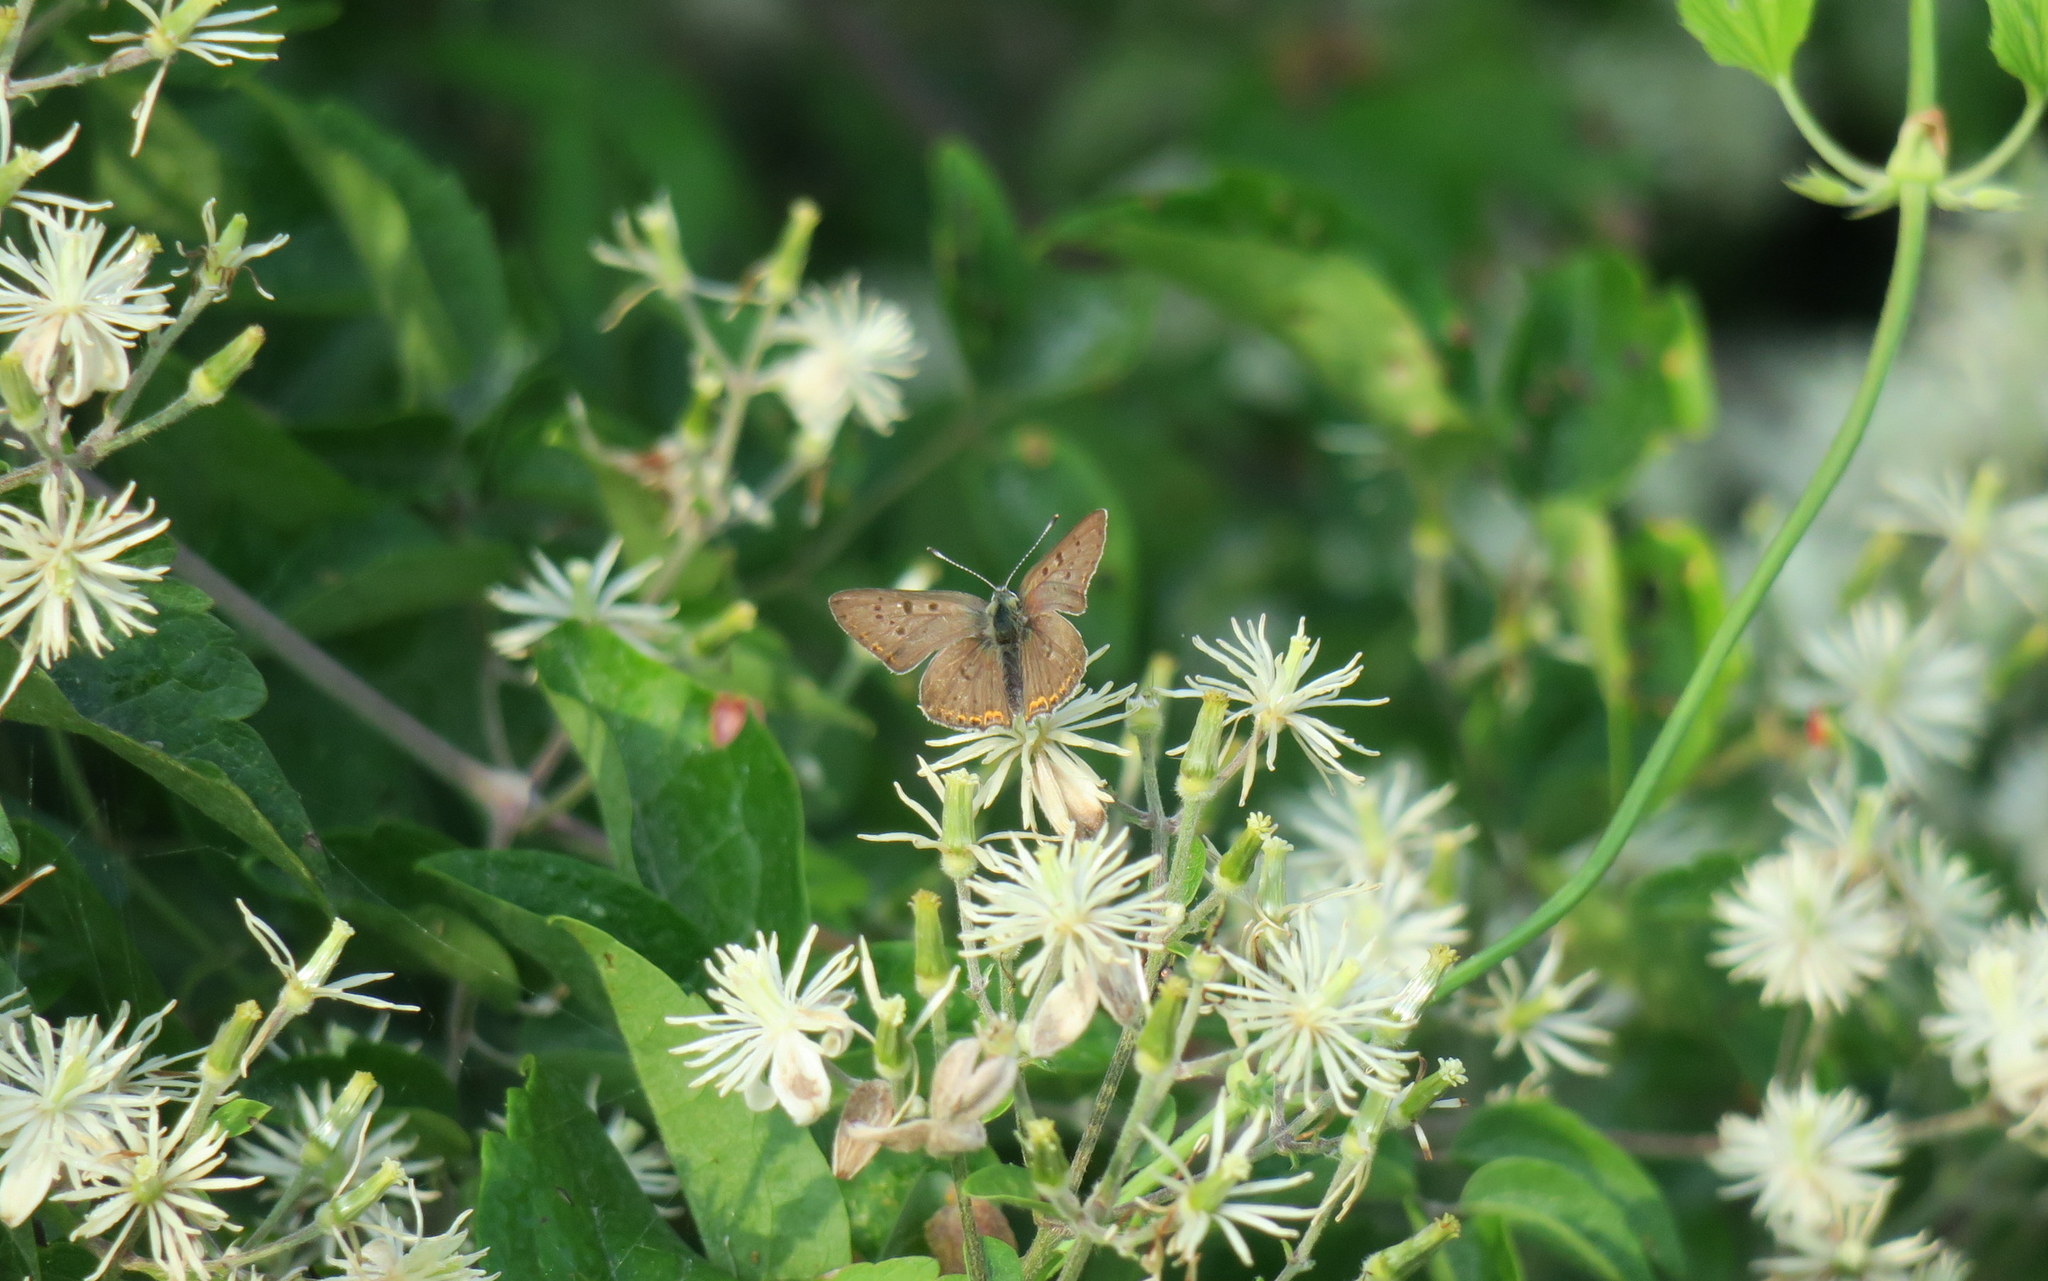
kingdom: Animalia
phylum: Arthropoda
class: Insecta
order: Lepidoptera
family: Lycaenidae
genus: Loweia
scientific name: Loweia tityrus
